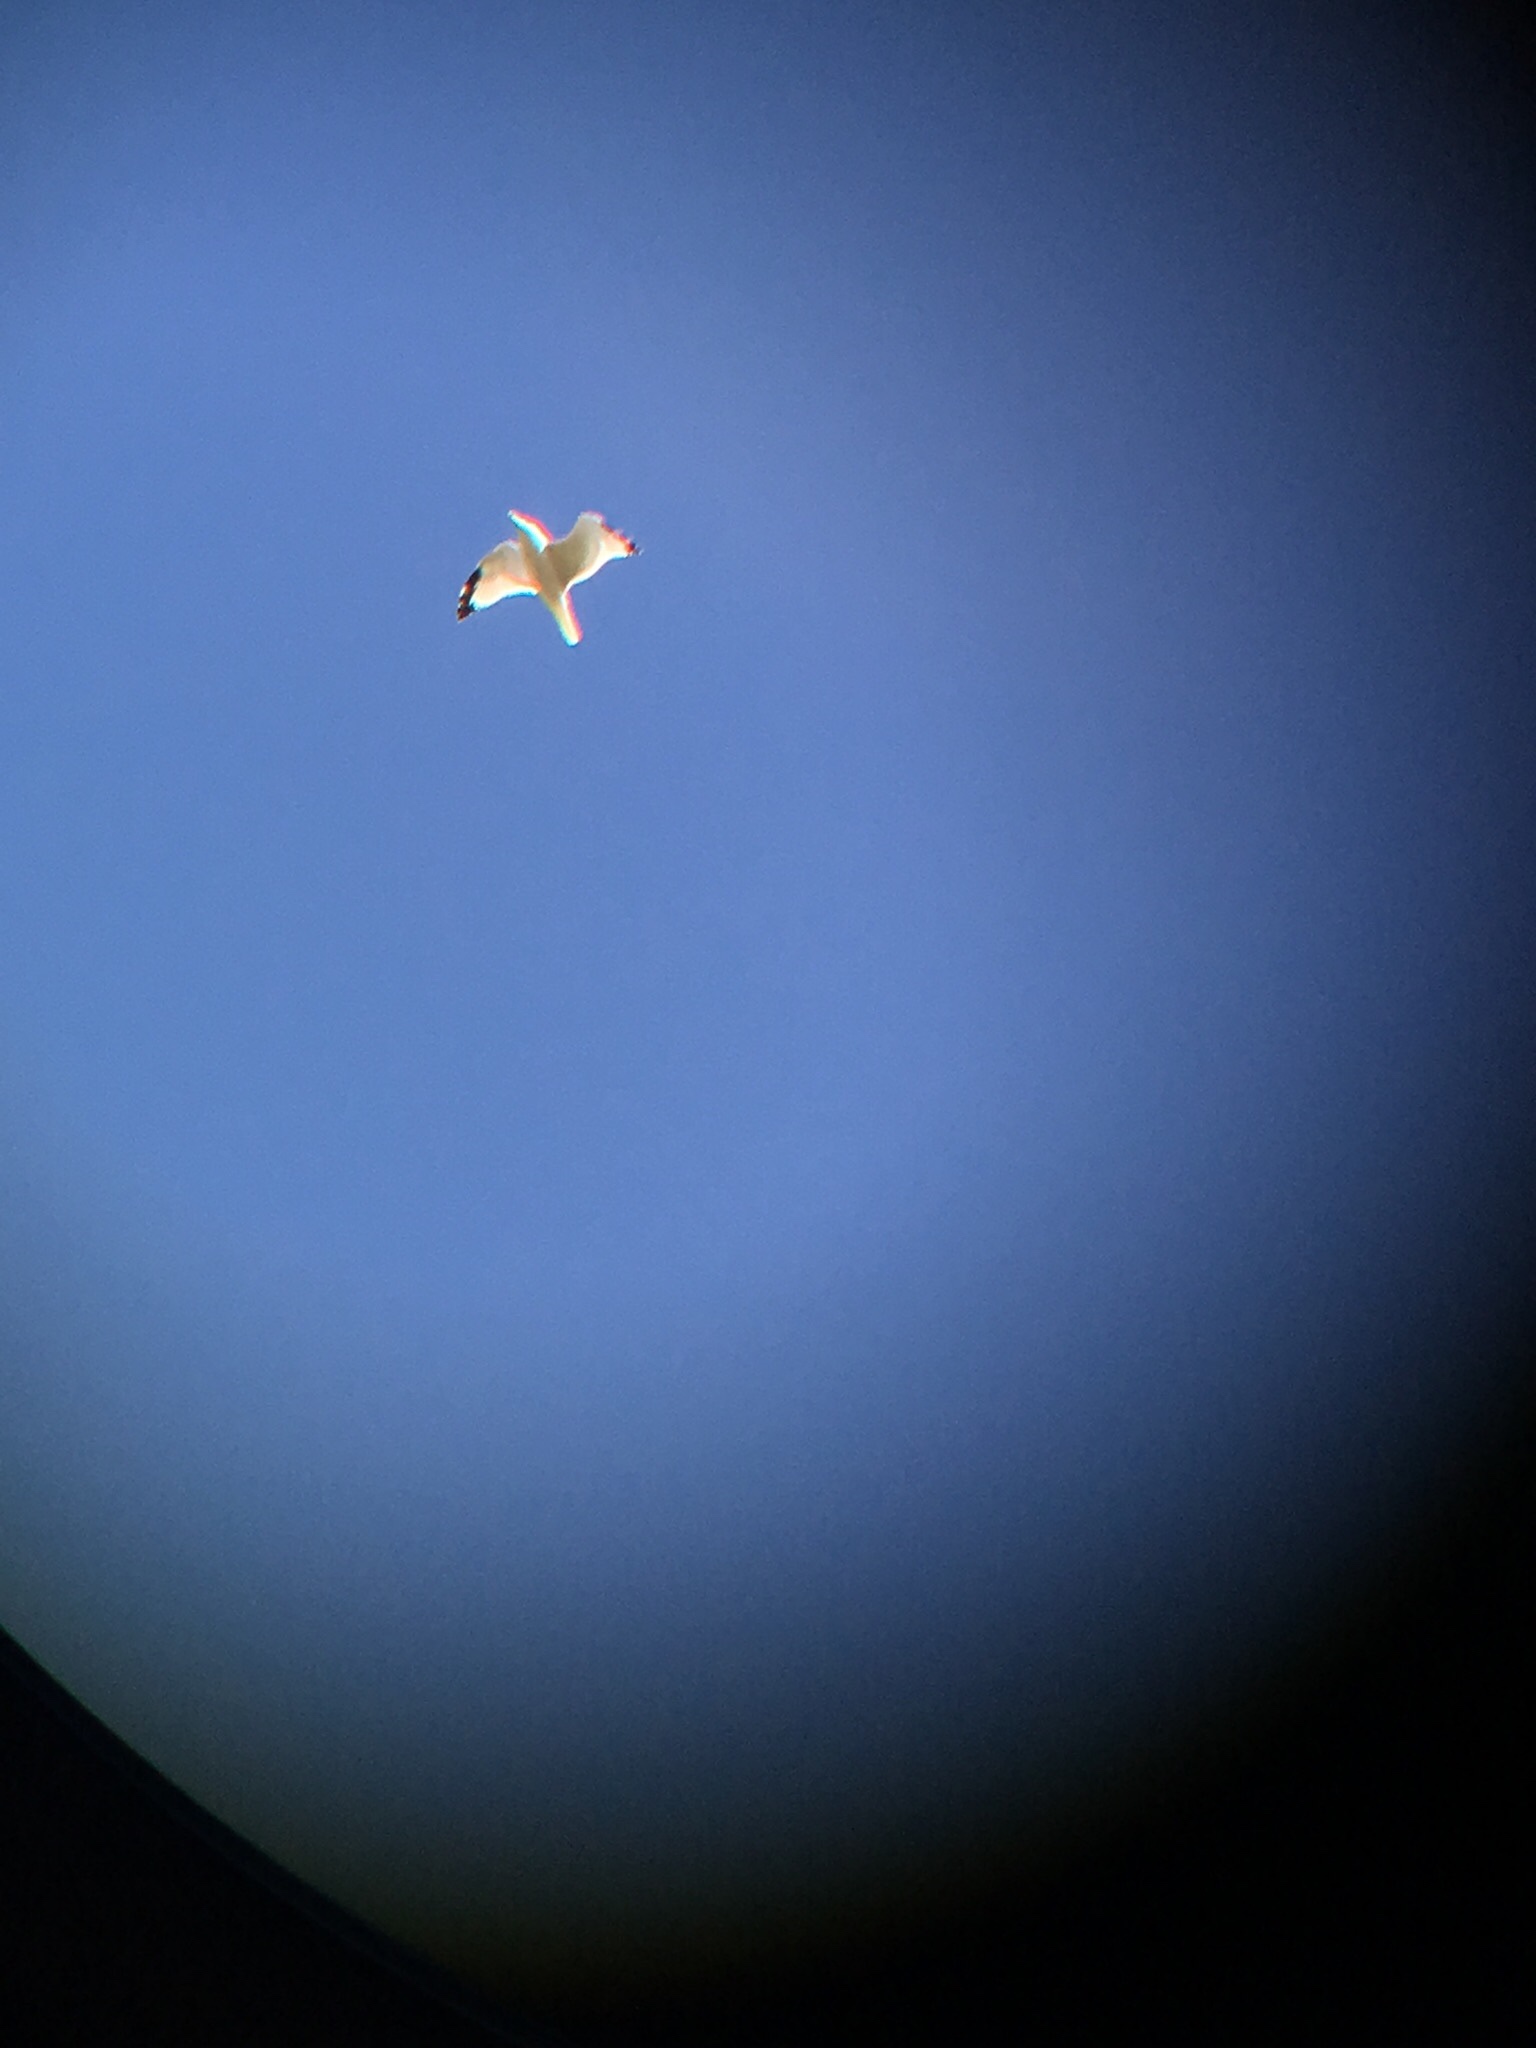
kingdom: Animalia
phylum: Chordata
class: Aves
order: Charadriiformes
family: Laridae
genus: Larus
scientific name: Larus delawarensis
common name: Ring-billed gull
